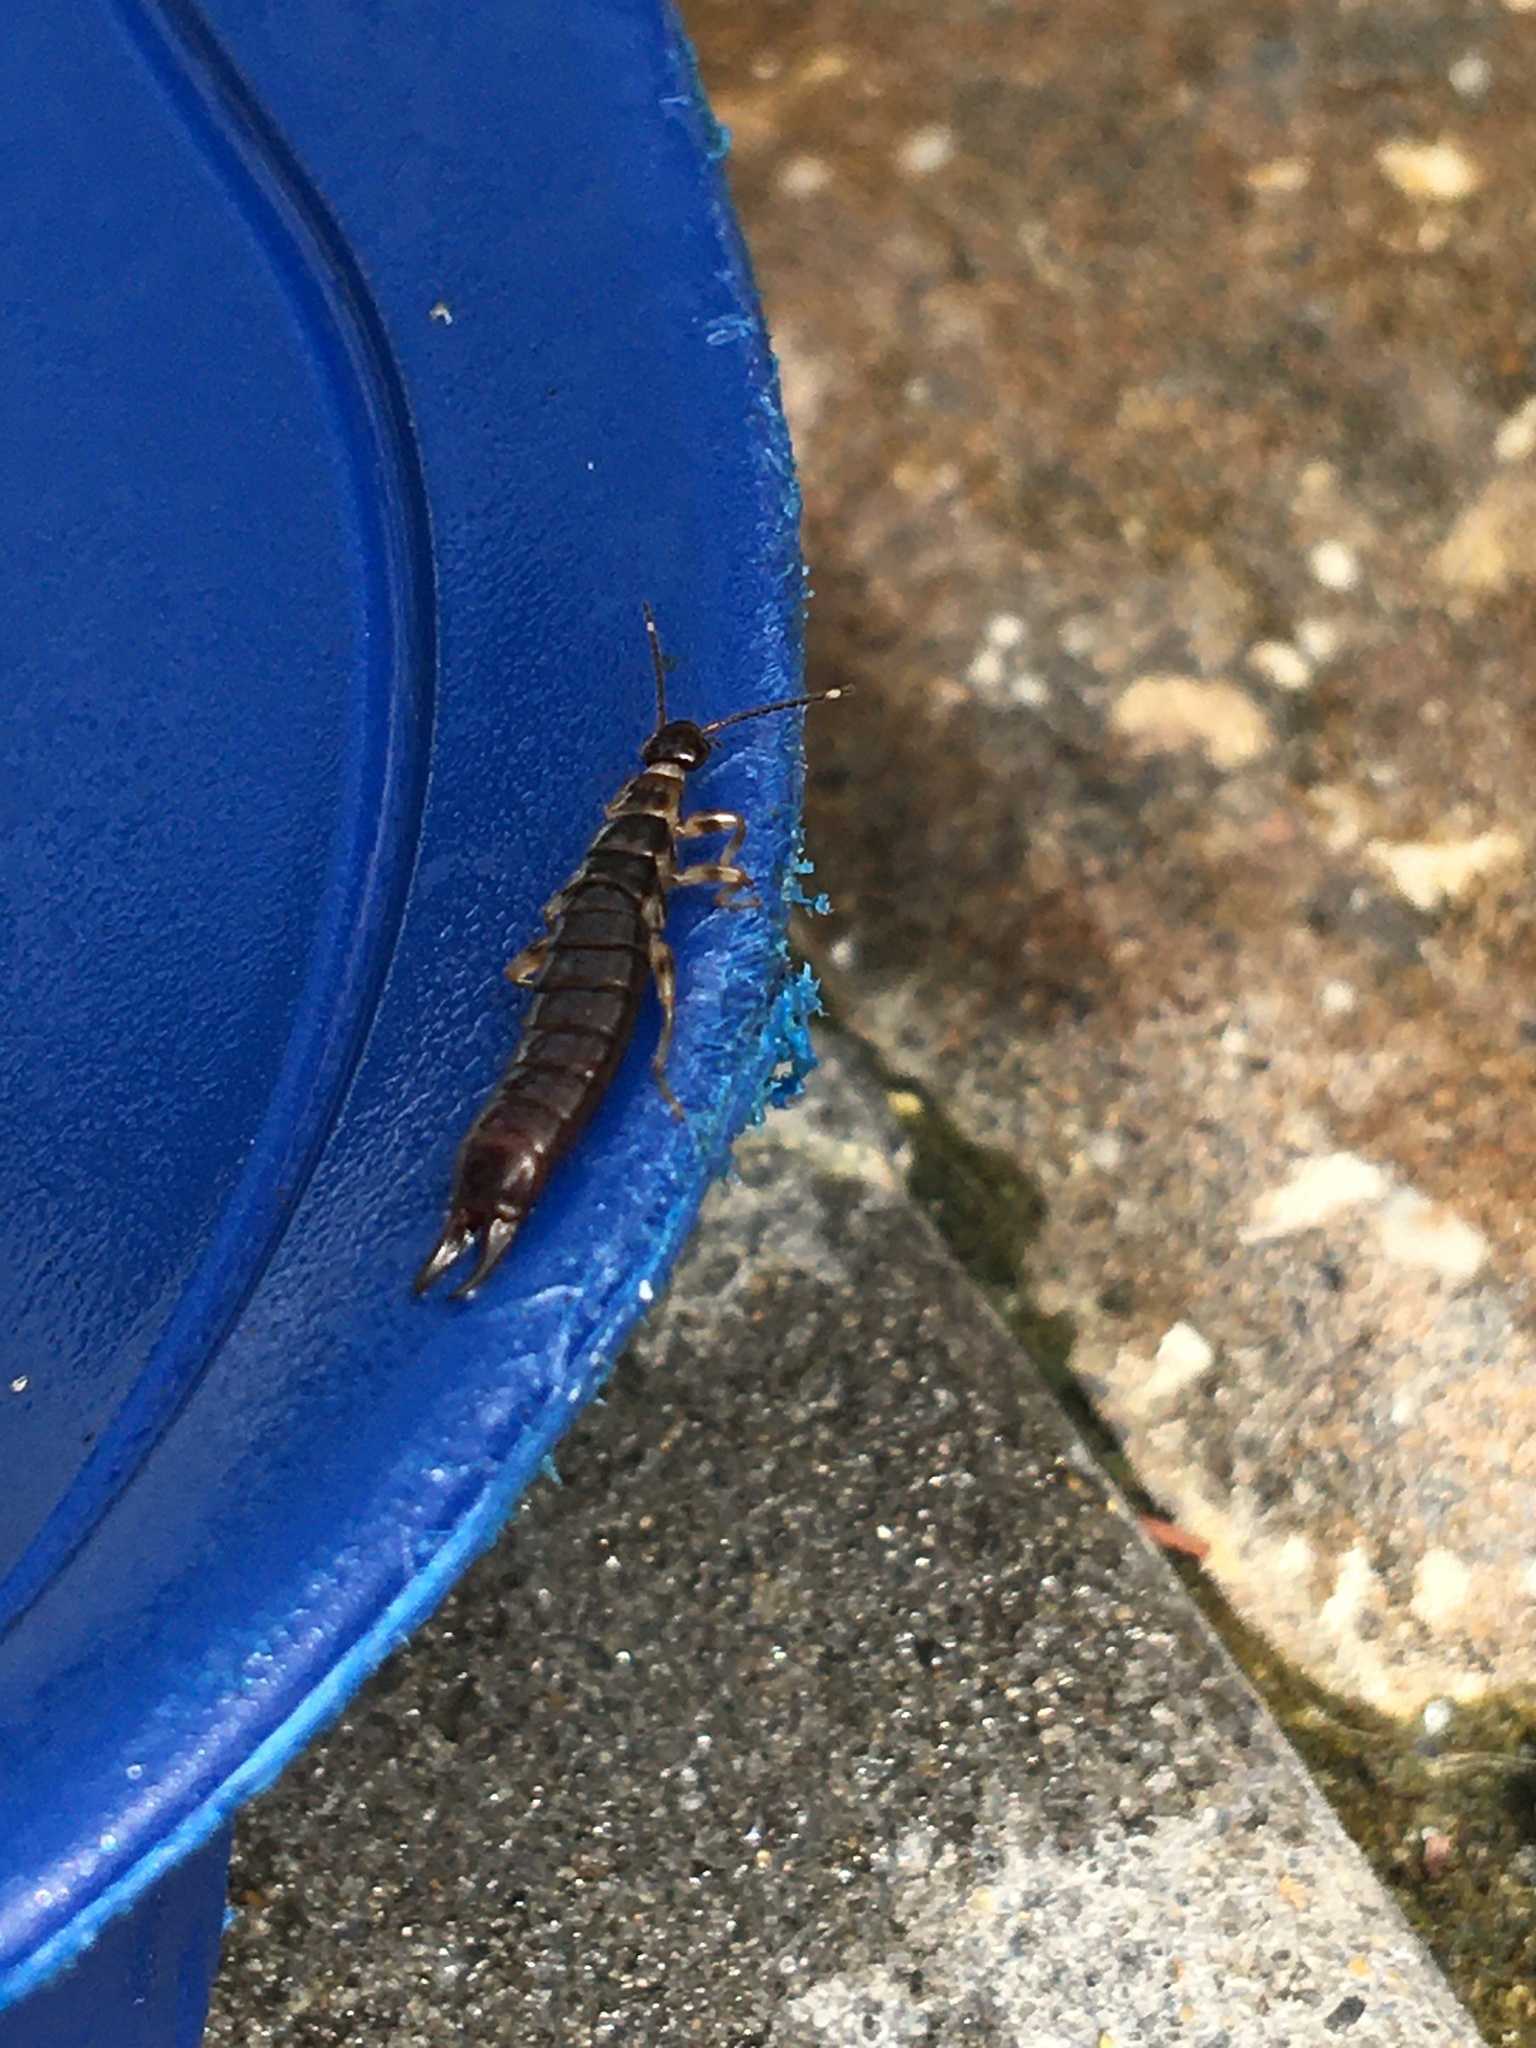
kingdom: Animalia
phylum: Arthropoda
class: Insecta
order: Dermaptera
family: Anisolabididae
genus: Euborellia
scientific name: Euborellia annulipes
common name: Ringlegged earwig
